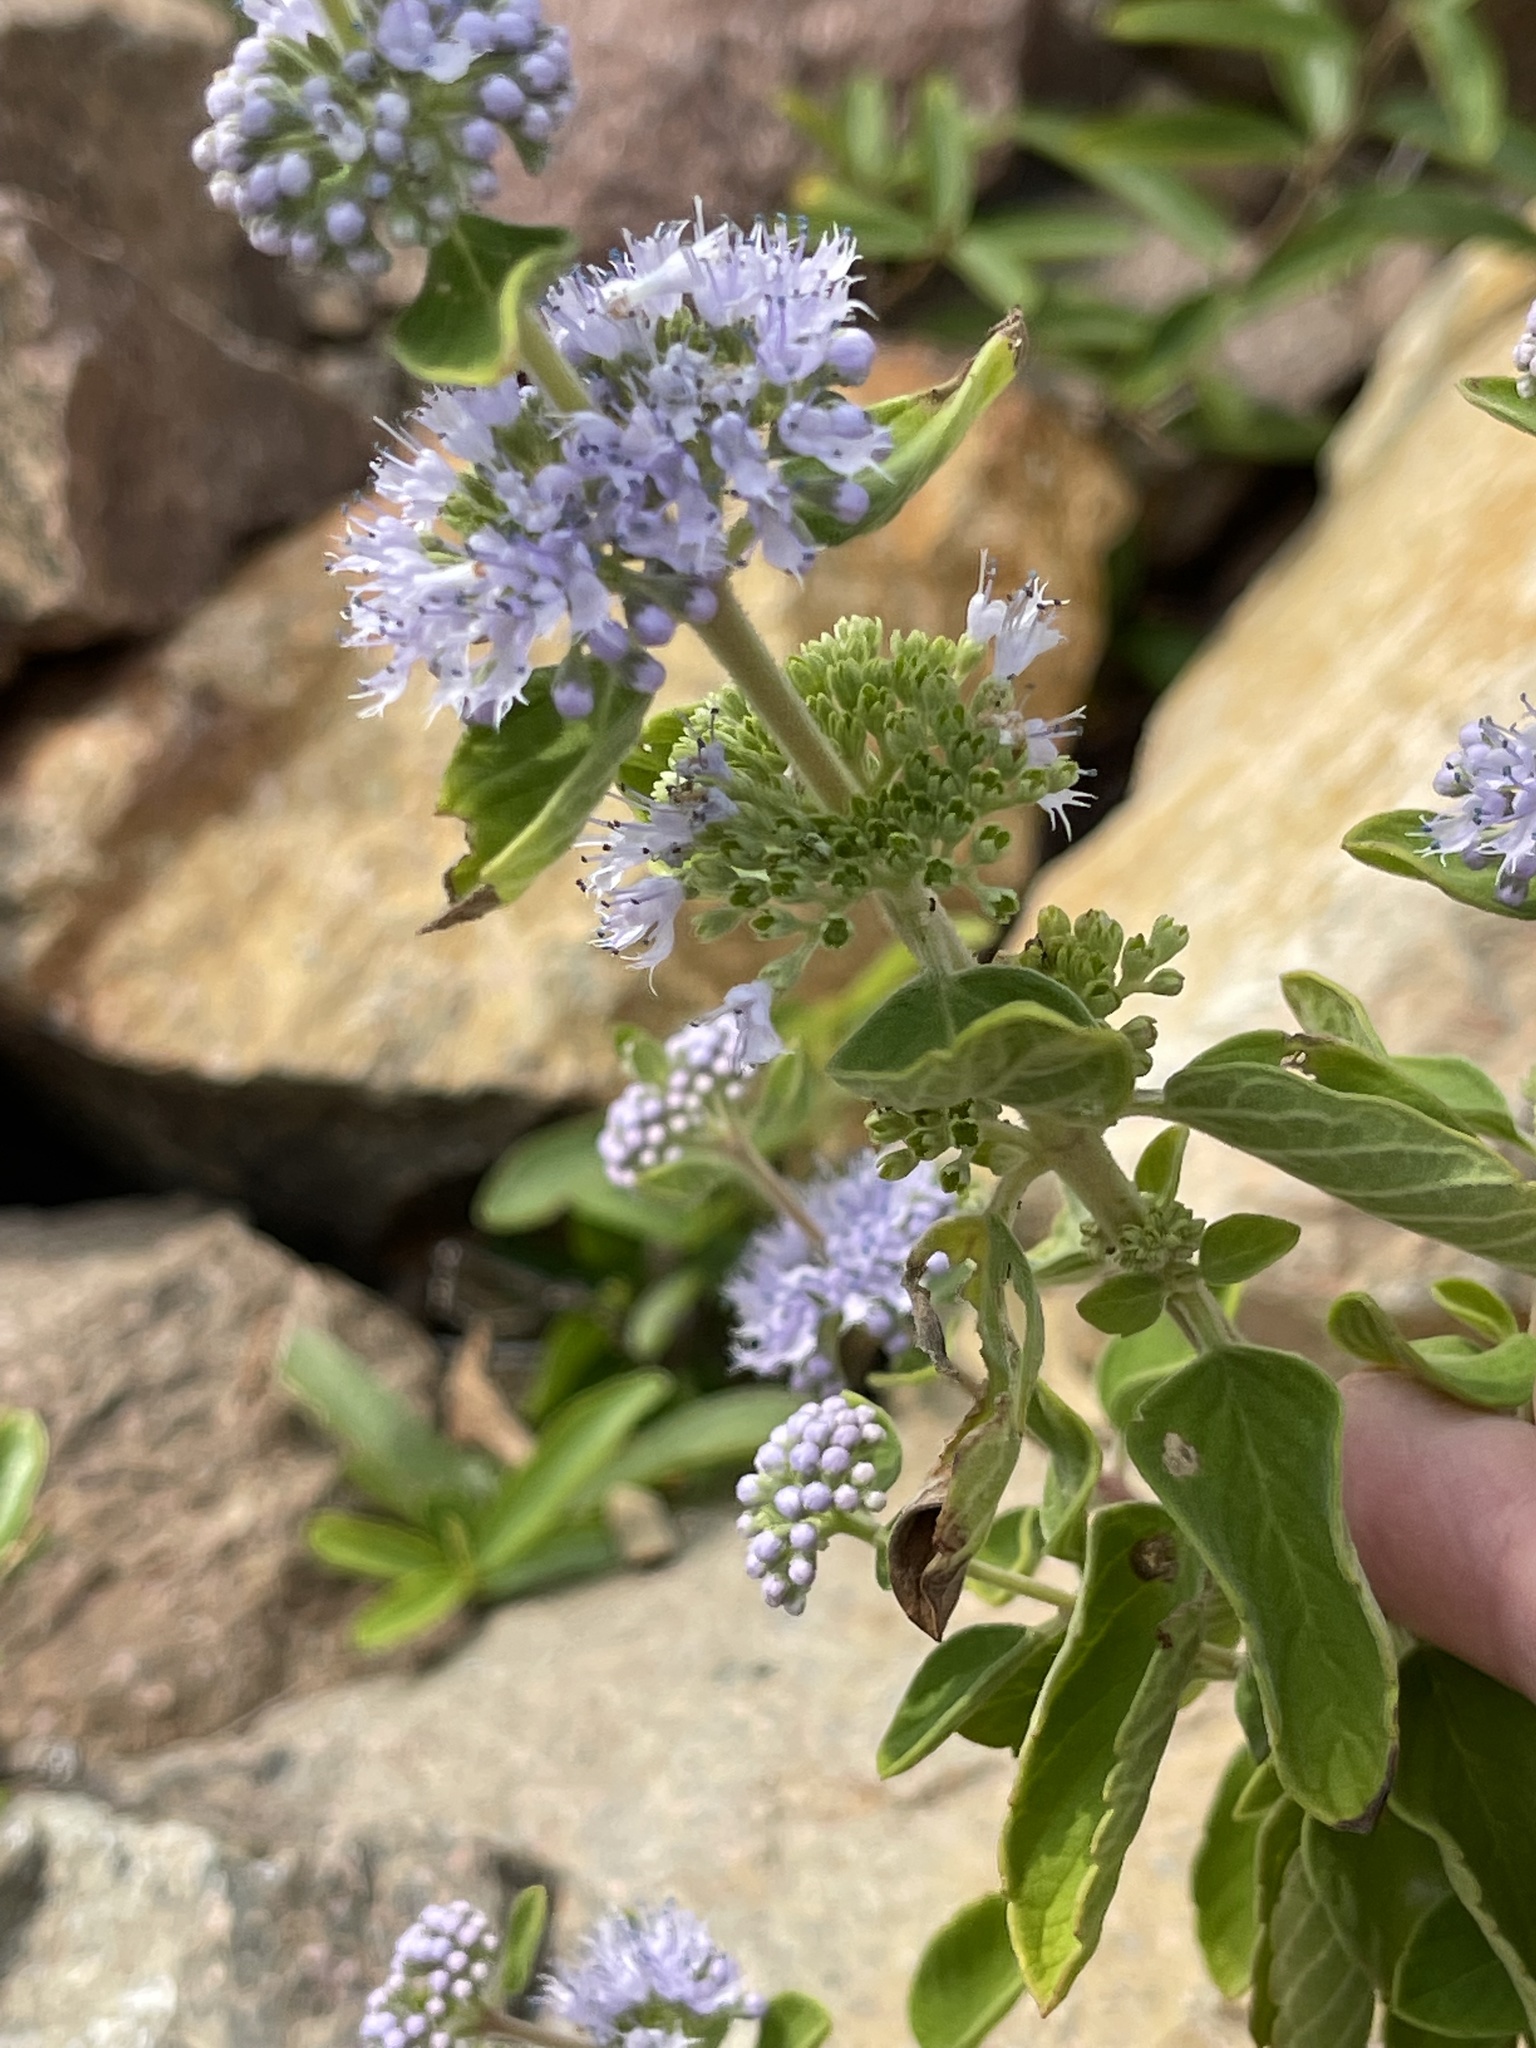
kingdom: Plantae
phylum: Tracheophyta
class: Magnoliopsida
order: Lamiales
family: Lamiaceae
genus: Caryopteris
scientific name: Caryopteris incana
